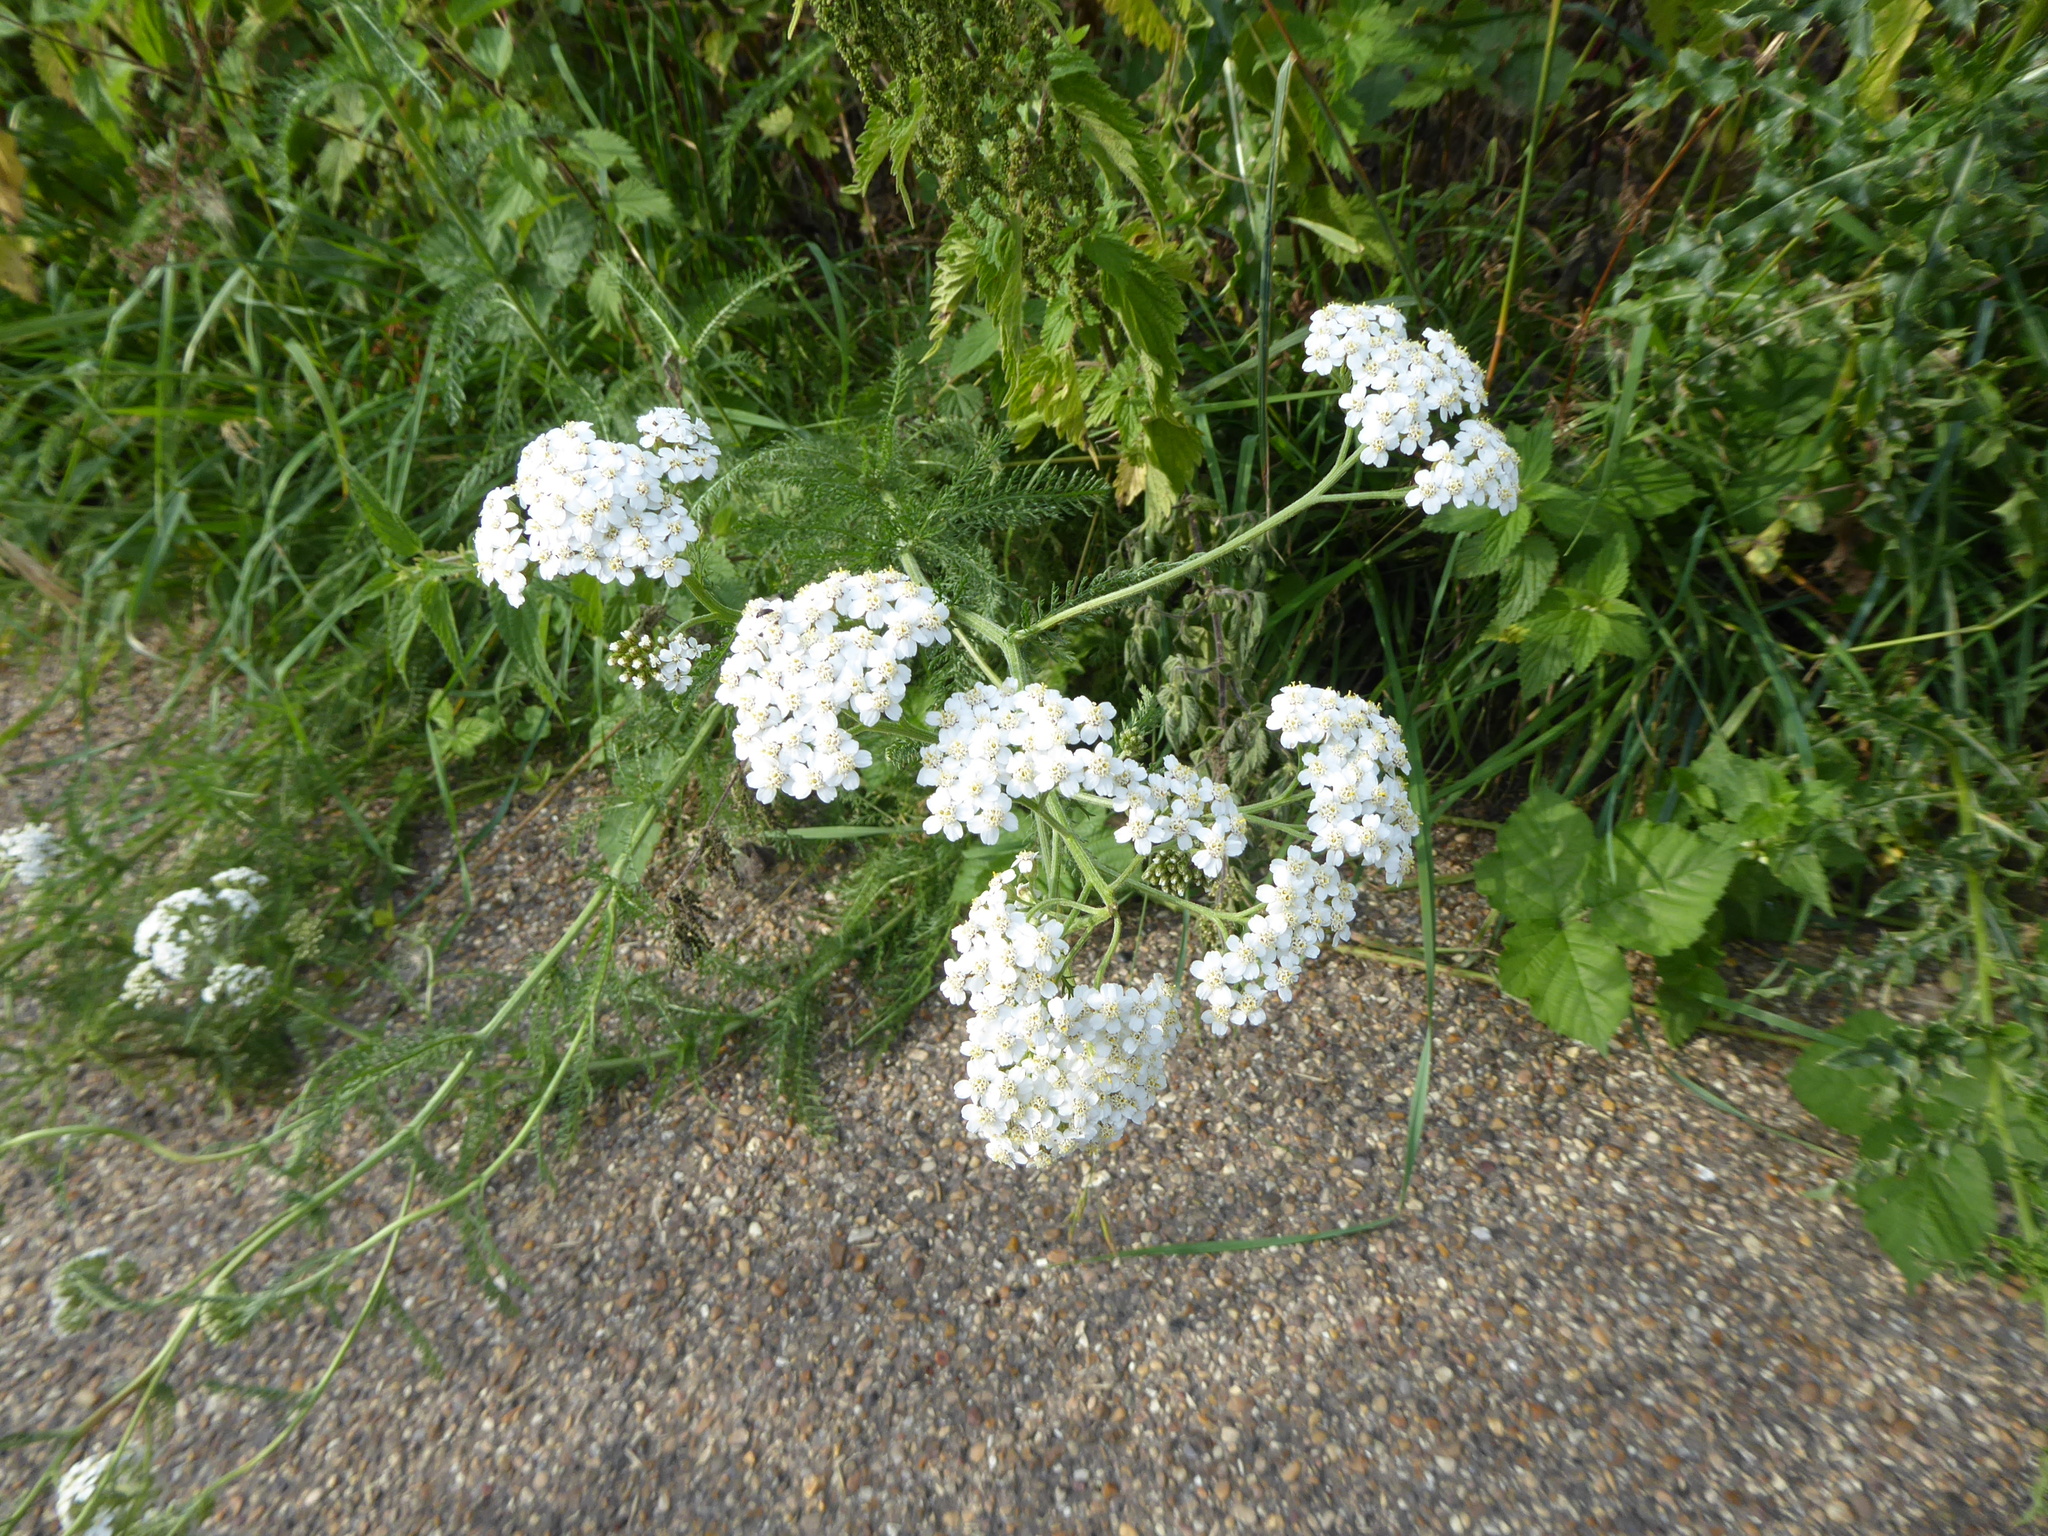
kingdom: Plantae
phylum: Tracheophyta
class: Magnoliopsida
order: Asterales
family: Asteraceae
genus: Achillea
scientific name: Achillea millefolium
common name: Yarrow
